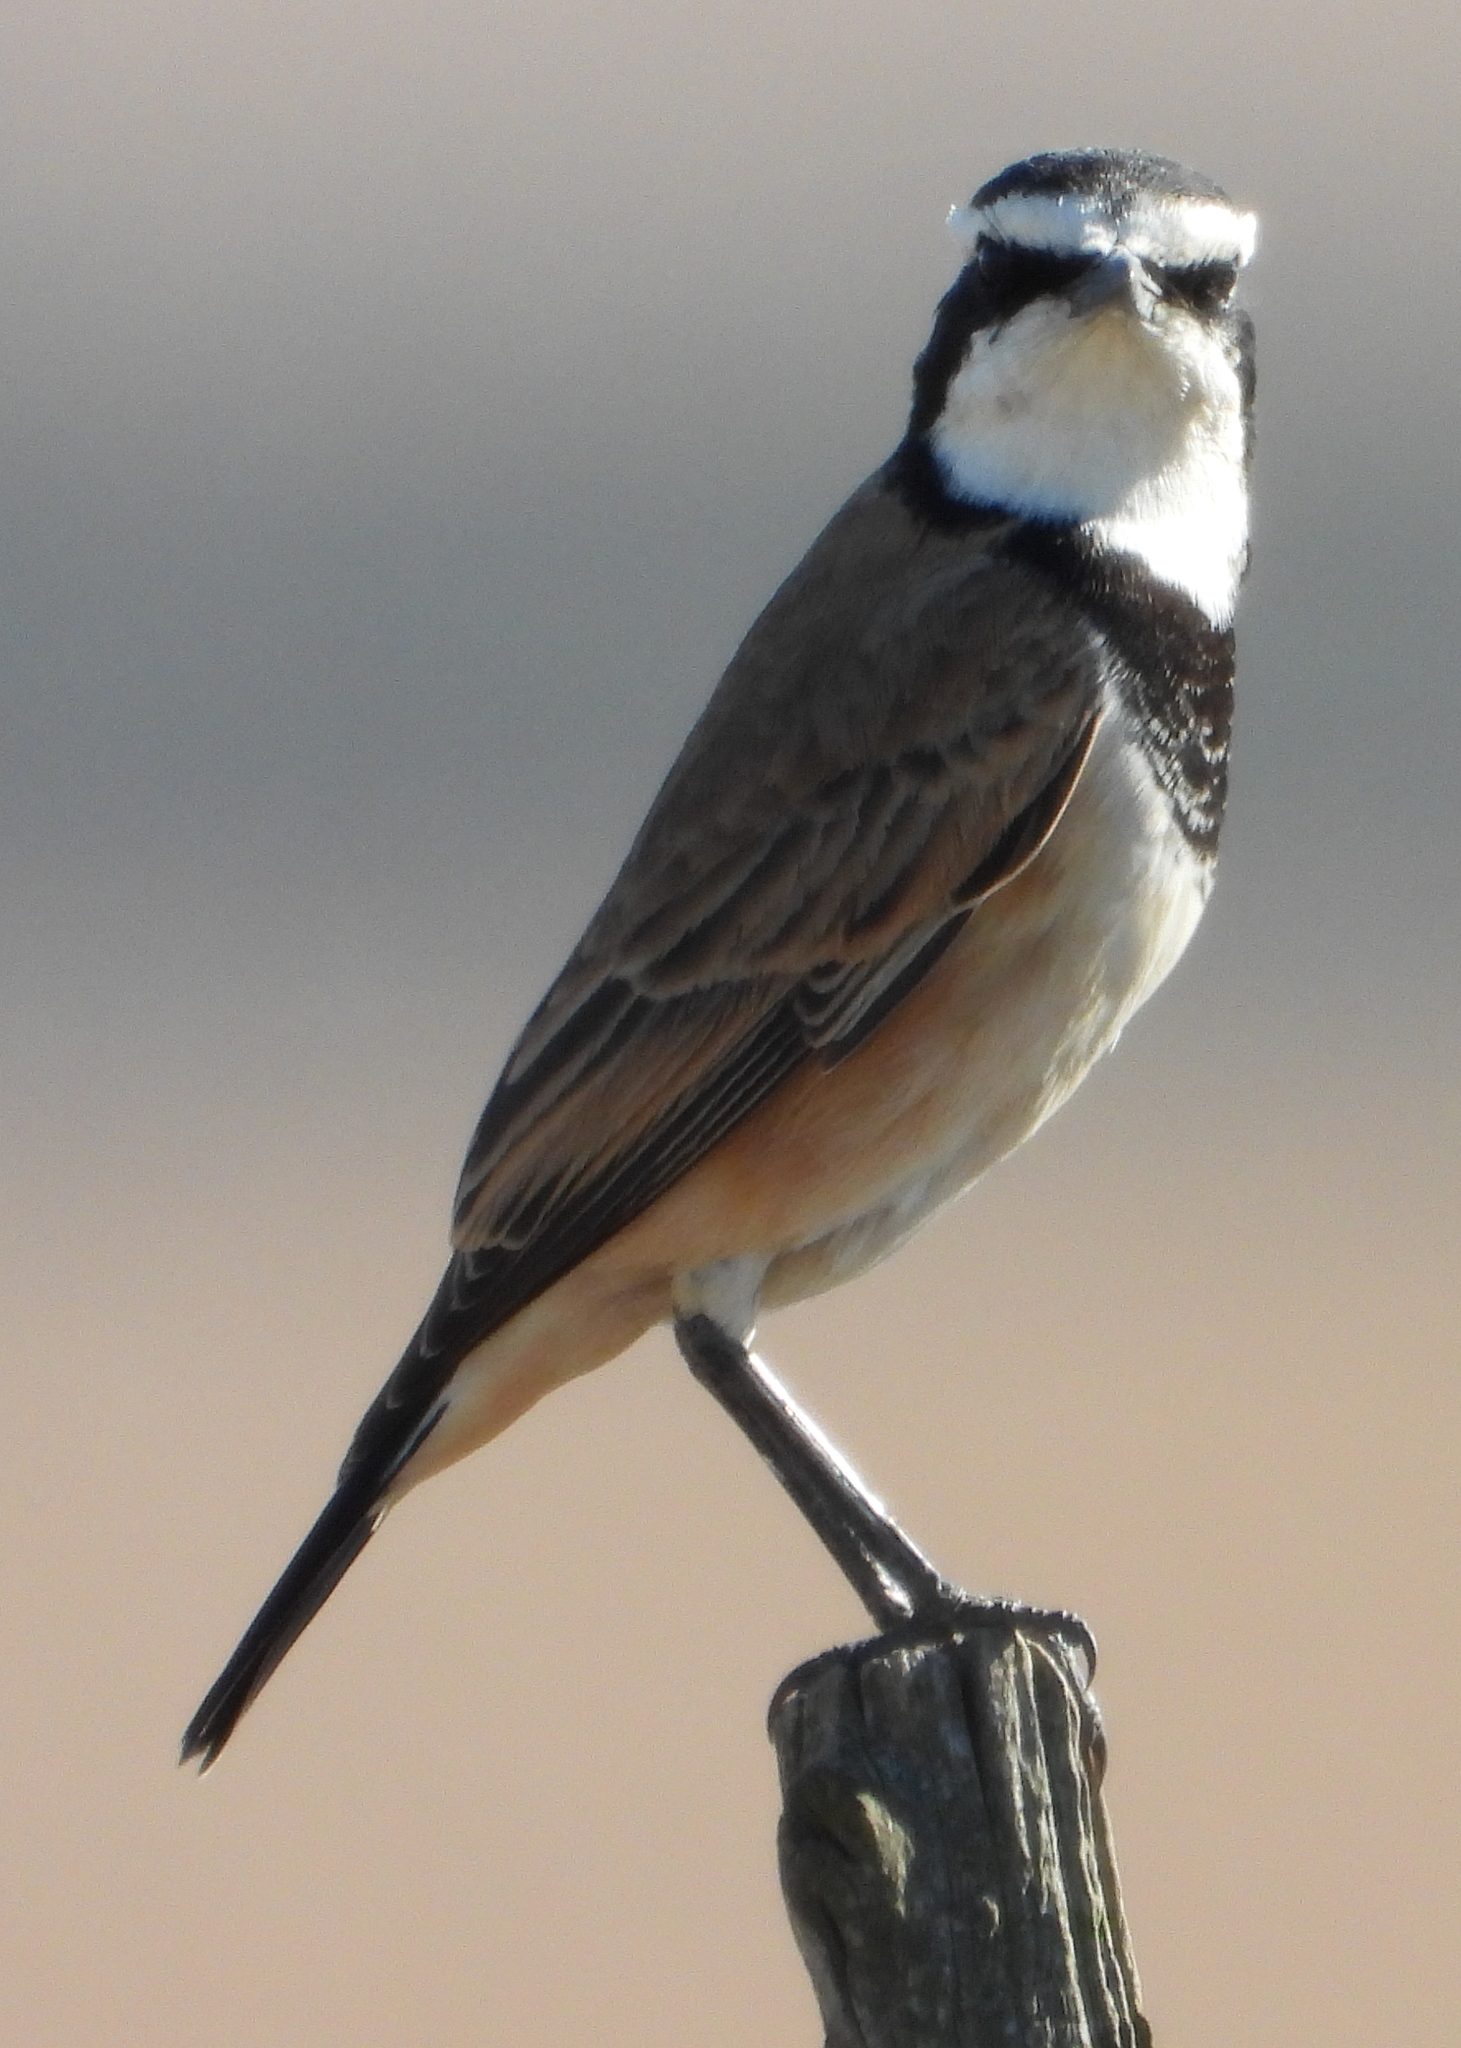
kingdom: Animalia
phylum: Chordata
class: Aves
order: Passeriformes
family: Muscicapidae
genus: Oenanthe
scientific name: Oenanthe pileata
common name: Capped wheatear
